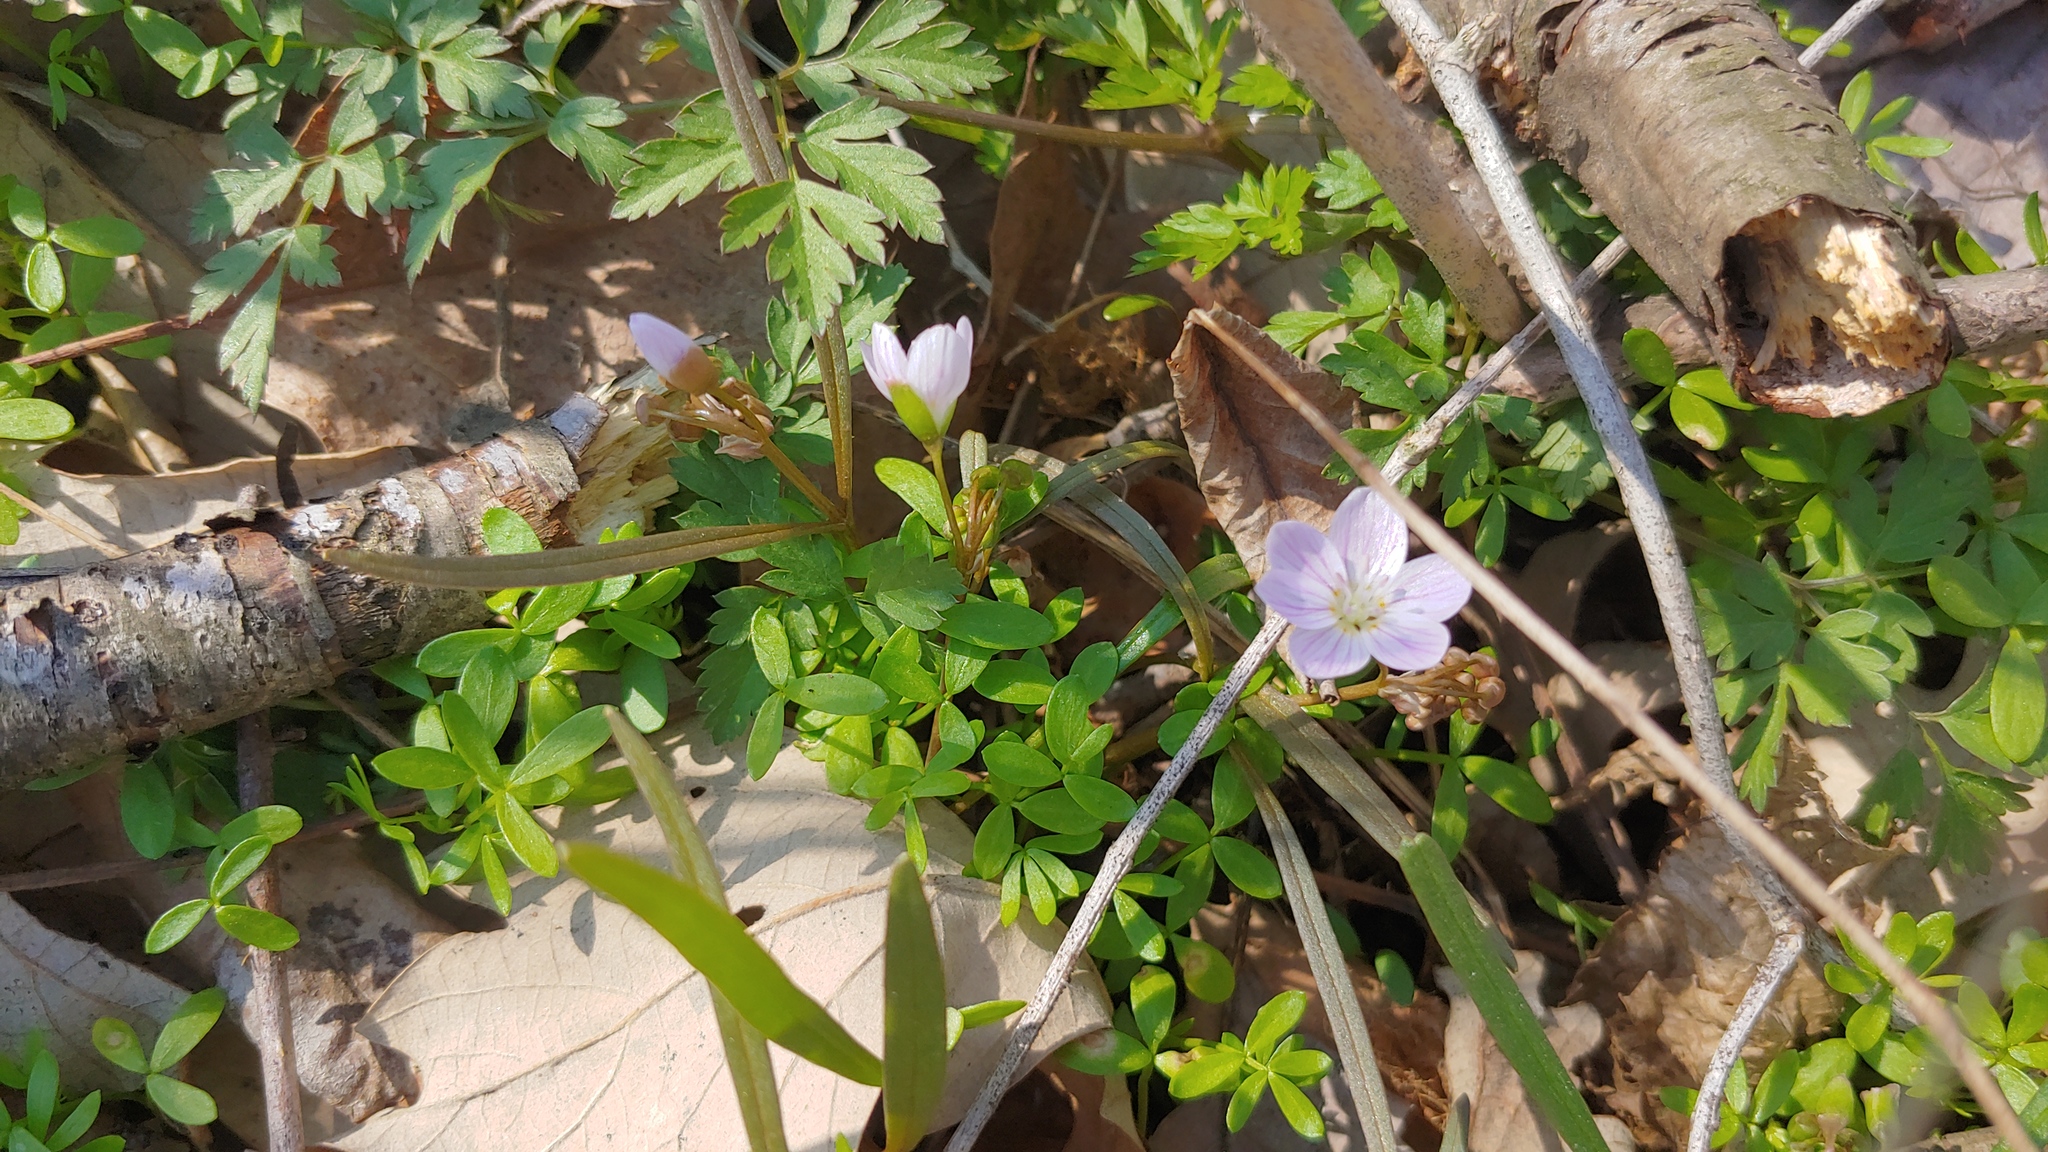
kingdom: Plantae
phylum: Tracheophyta
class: Magnoliopsida
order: Caryophyllales
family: Montiaceae
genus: Claytonia
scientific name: Claytonia virginica
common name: Virginia springbeauty
